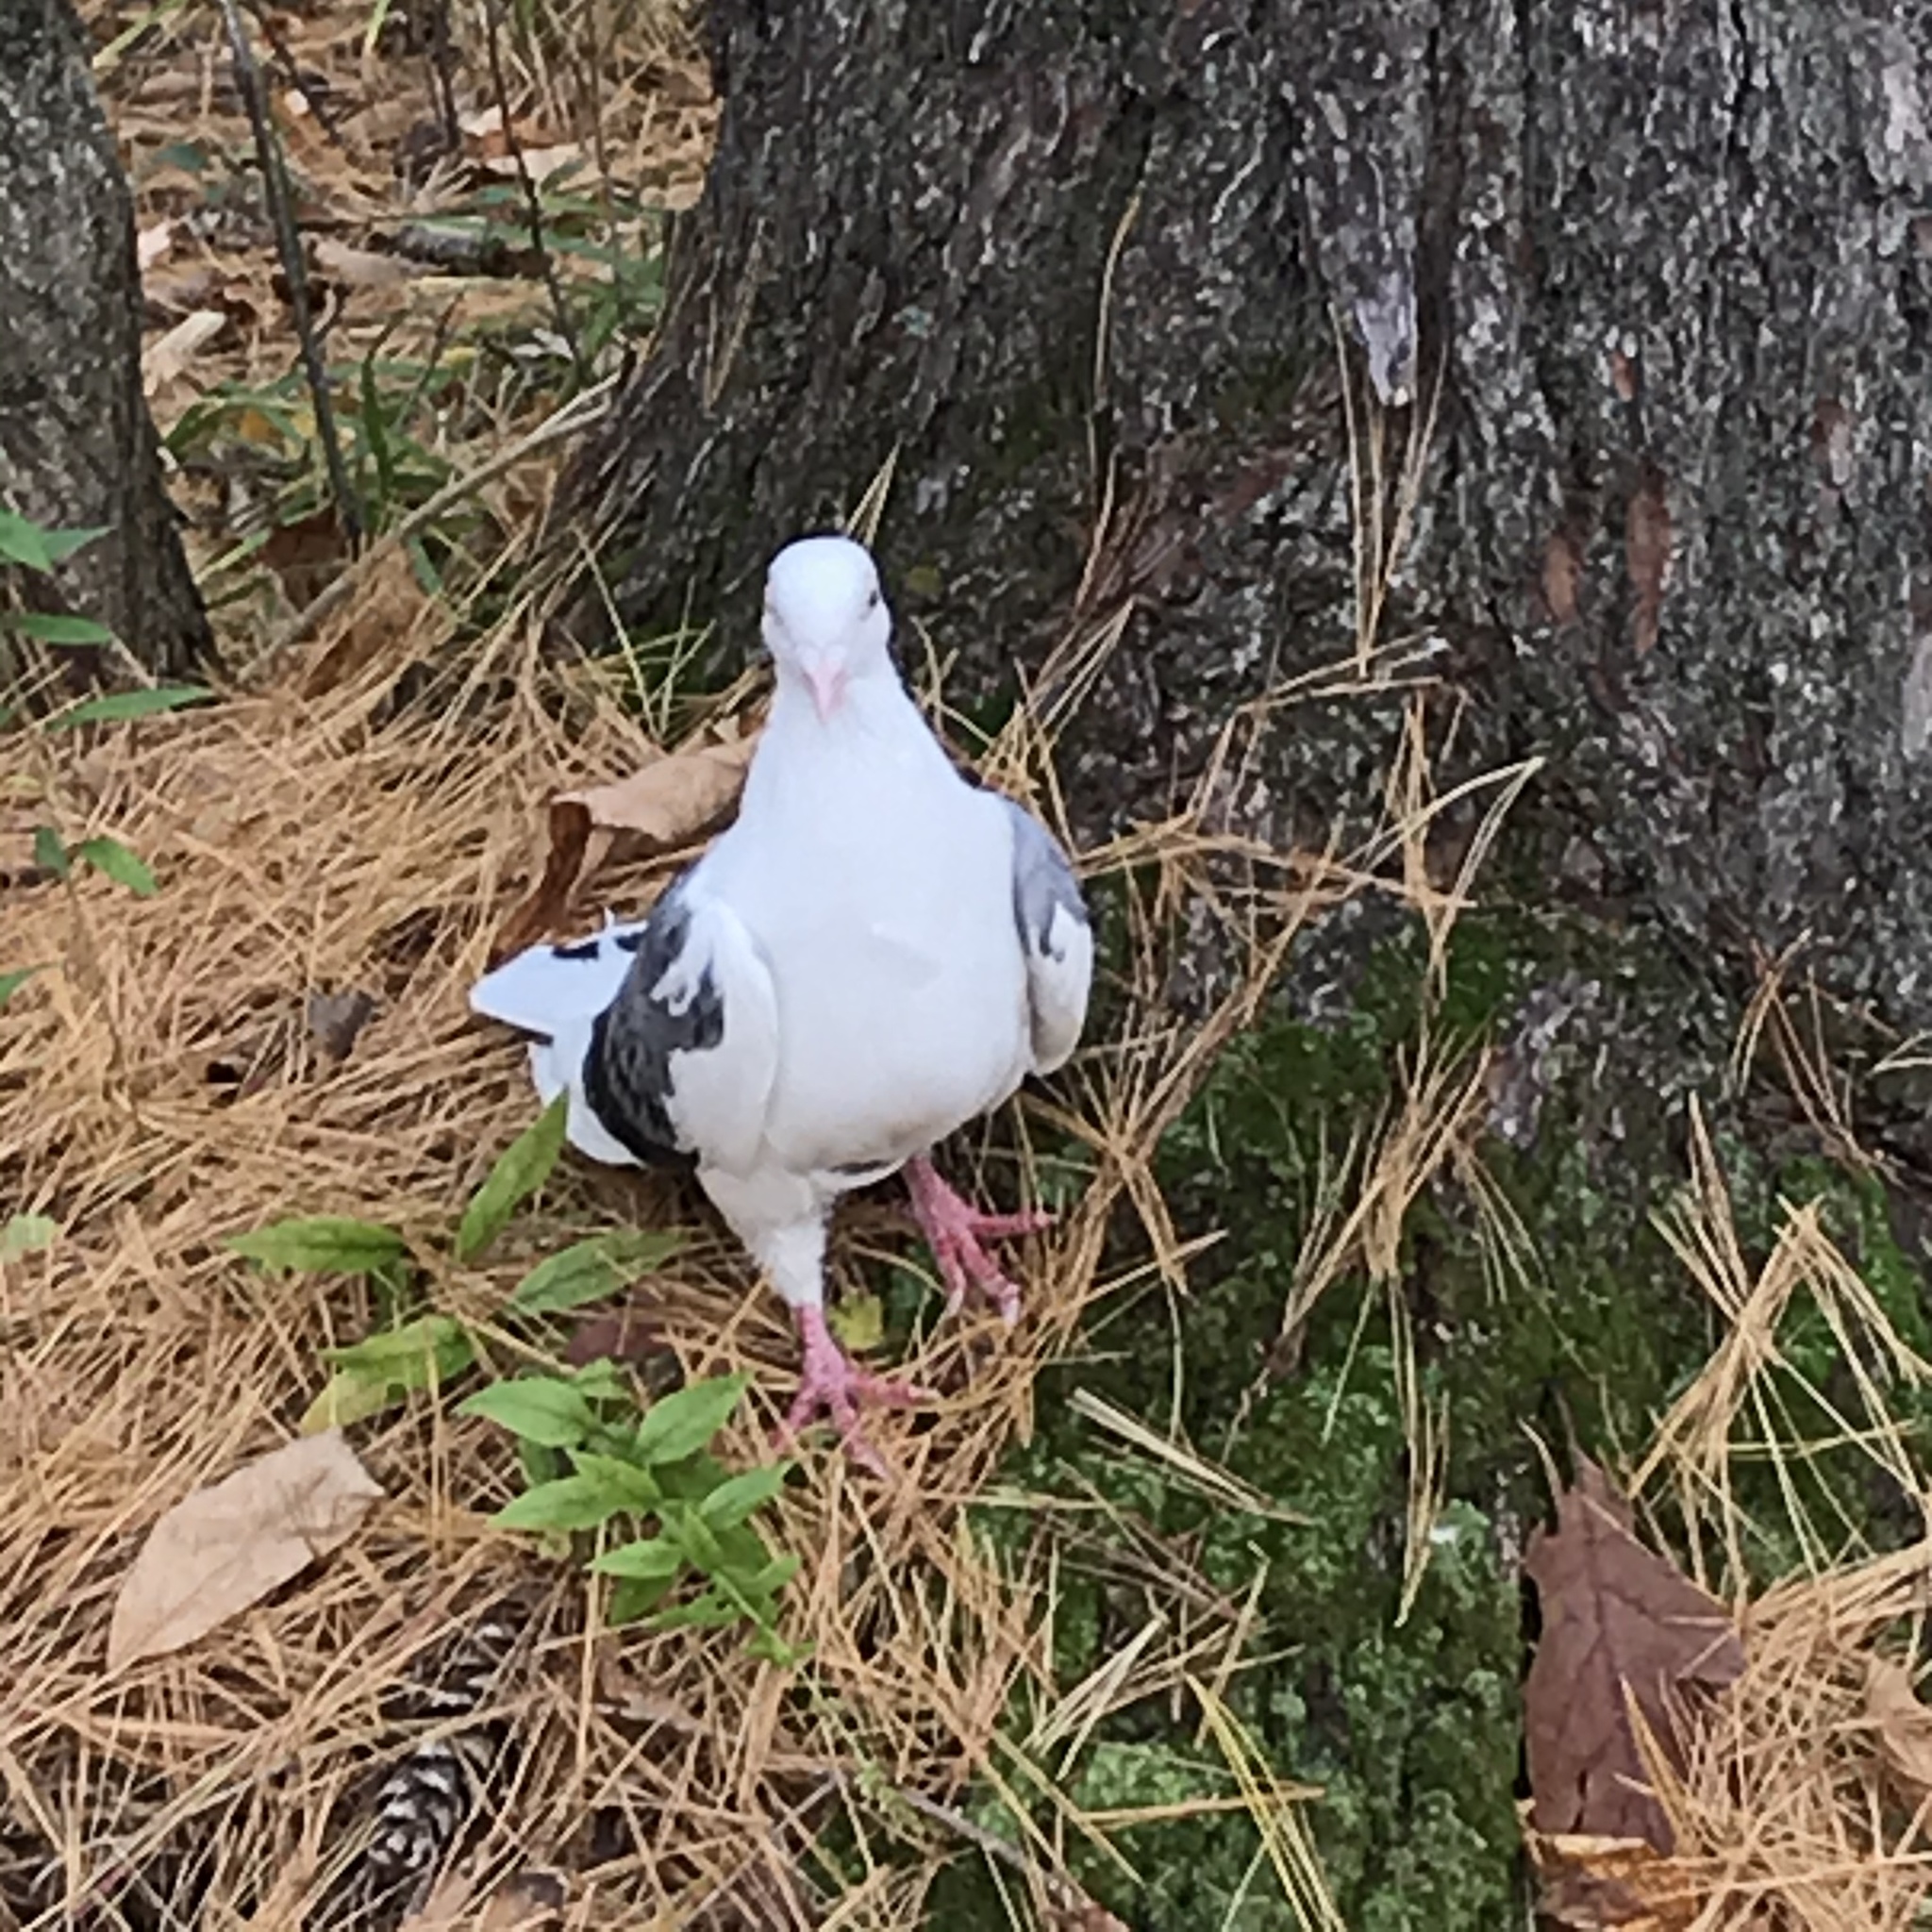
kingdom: Animalia
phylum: Chordata
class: Aves
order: Columbiformes
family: Columbidae
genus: Columba
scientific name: Columba livia
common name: Rock pigeon
